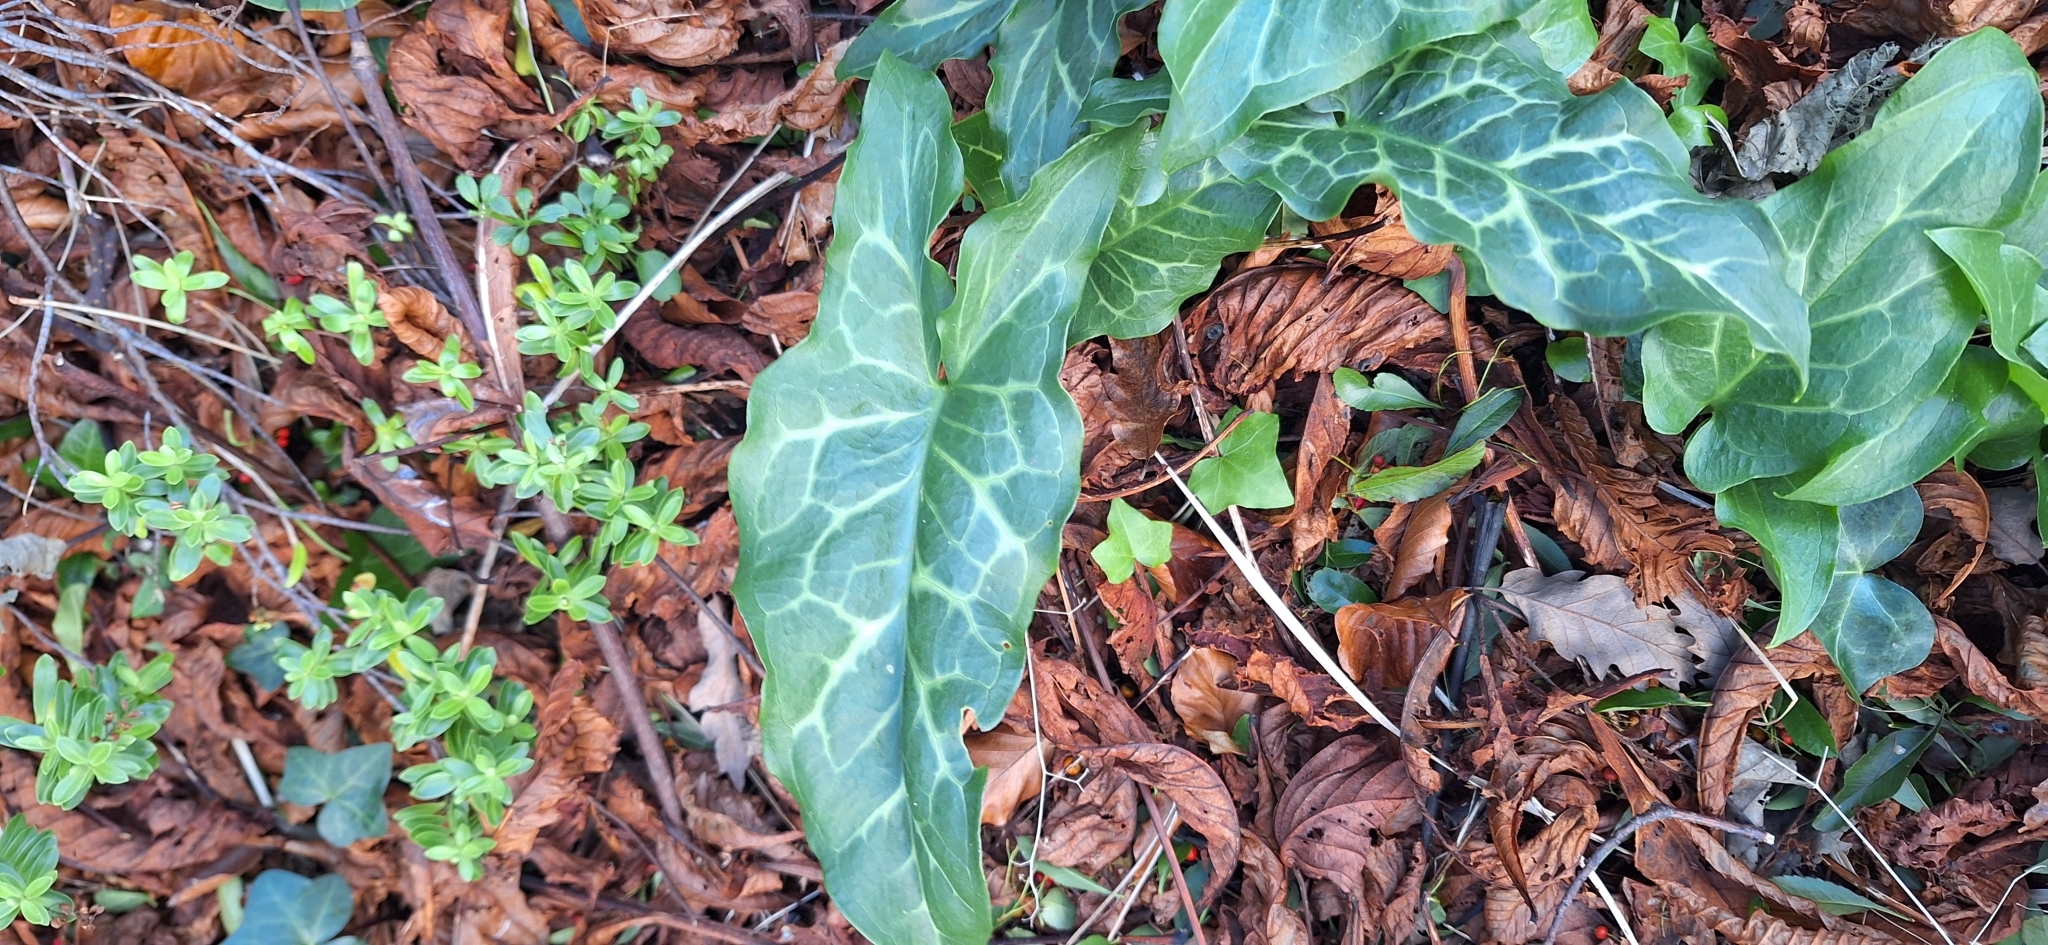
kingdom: Plantae
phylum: Tracheophyta
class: Liliopsida
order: Alismatales
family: Araceae
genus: Arum
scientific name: Arum italicum
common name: Italian lords-and-ladies
